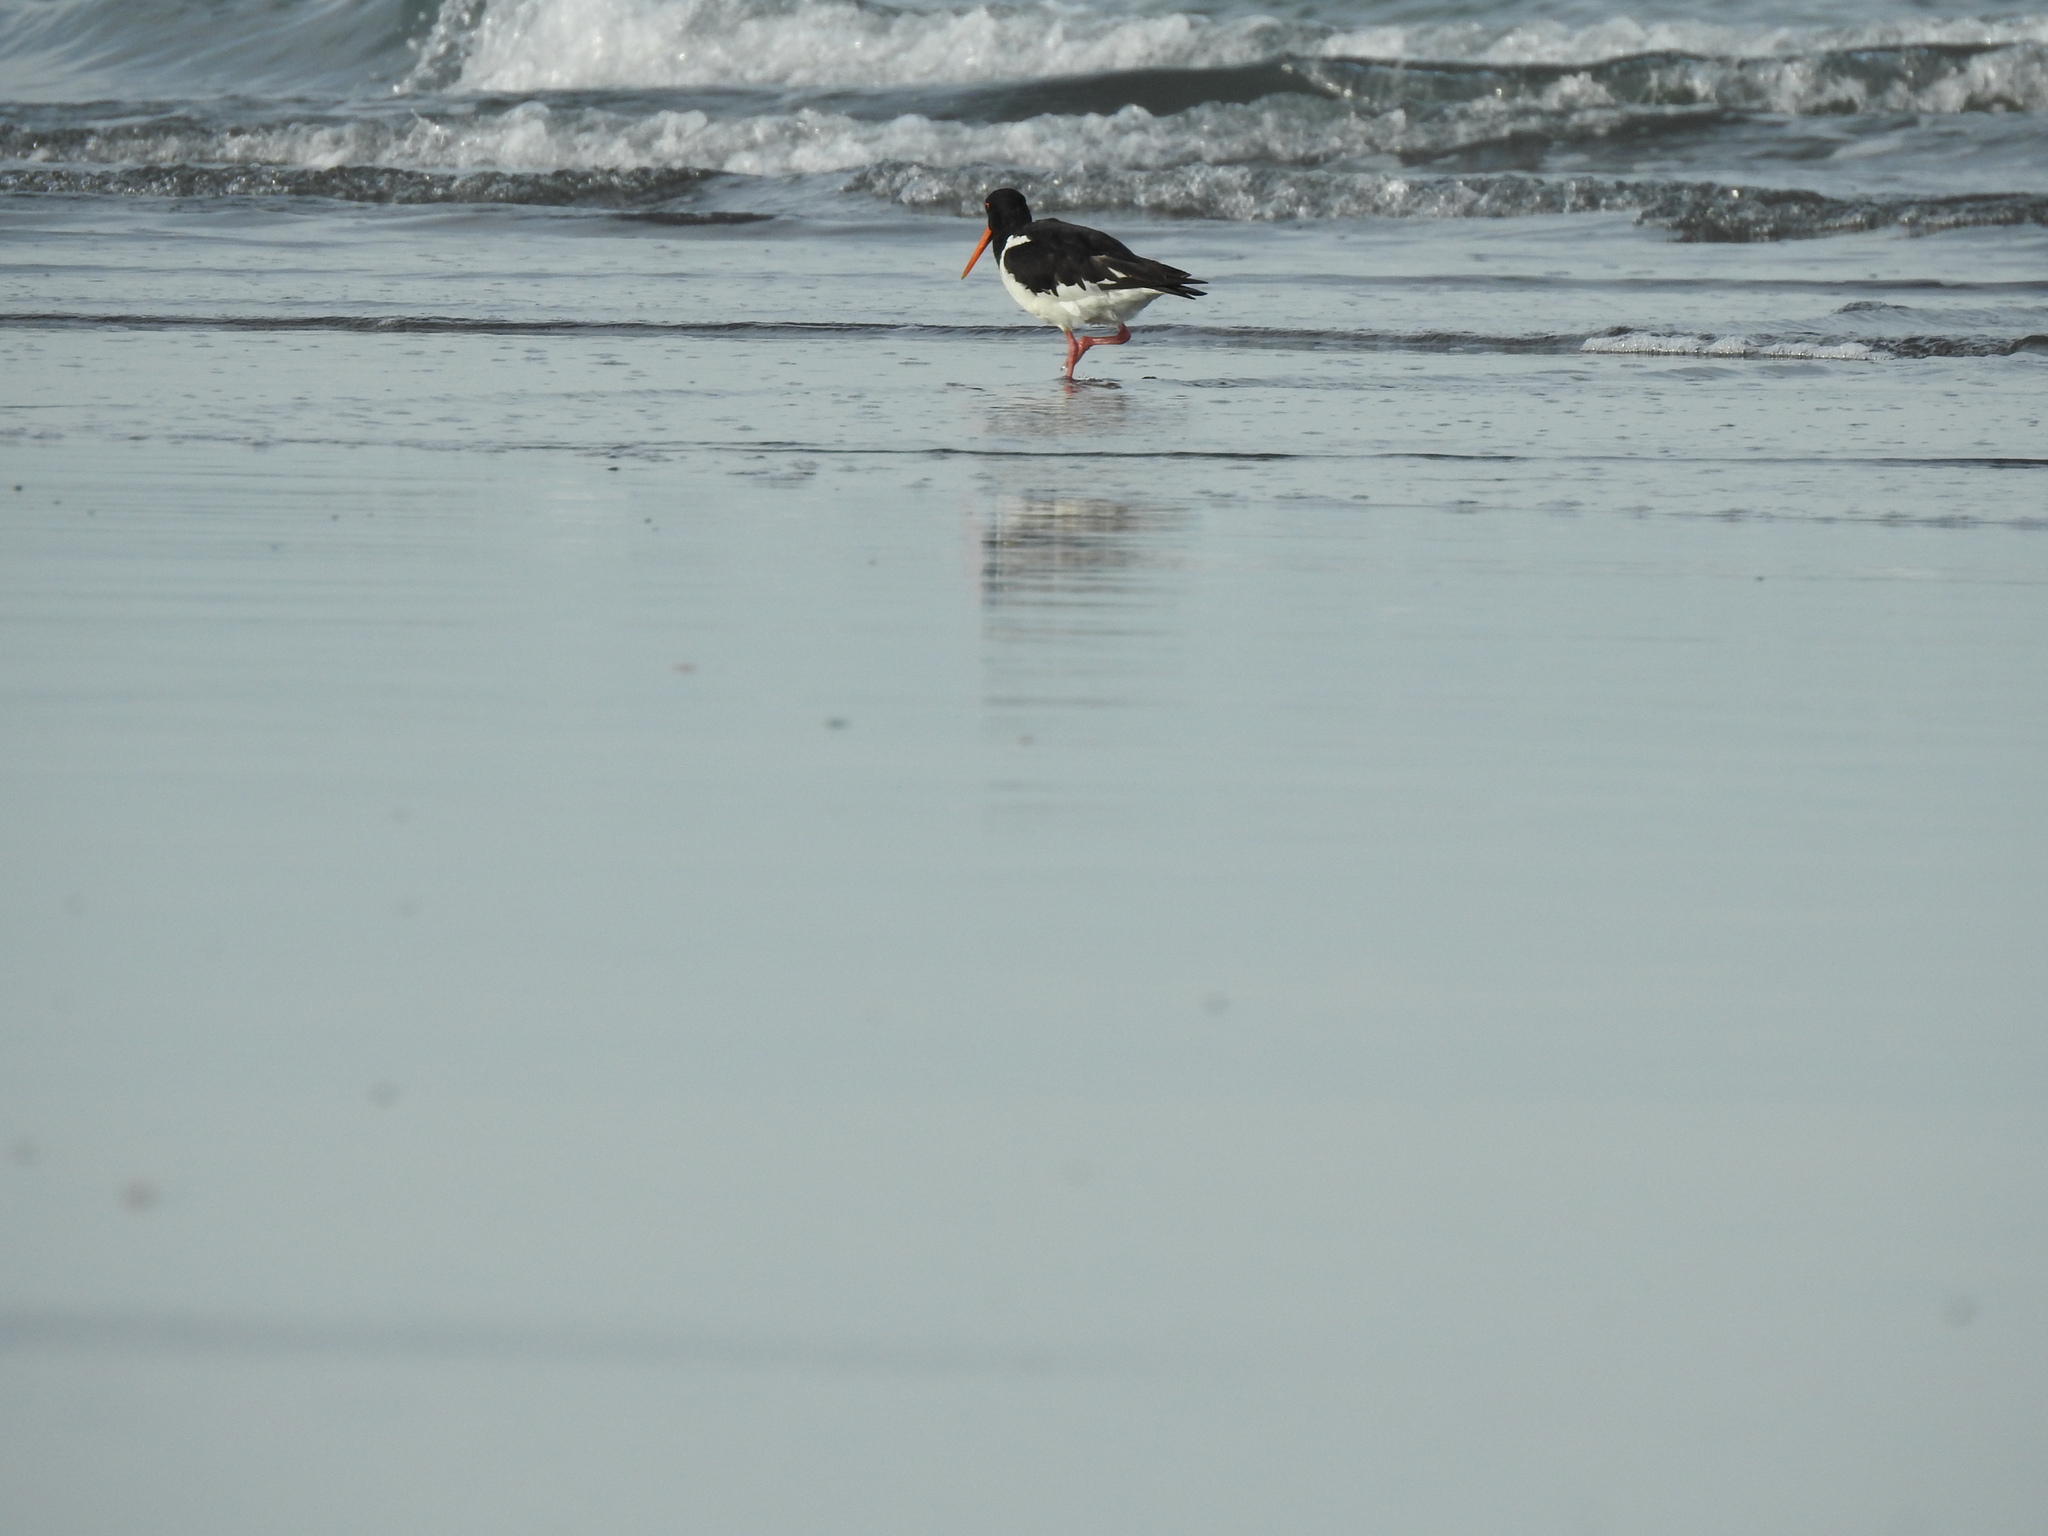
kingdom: Animalia
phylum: Chordata
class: Aves
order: Charadriiformes
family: Haematopodidae
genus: Haematopus
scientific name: Haematopus finschi
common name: South island oystercatcher
